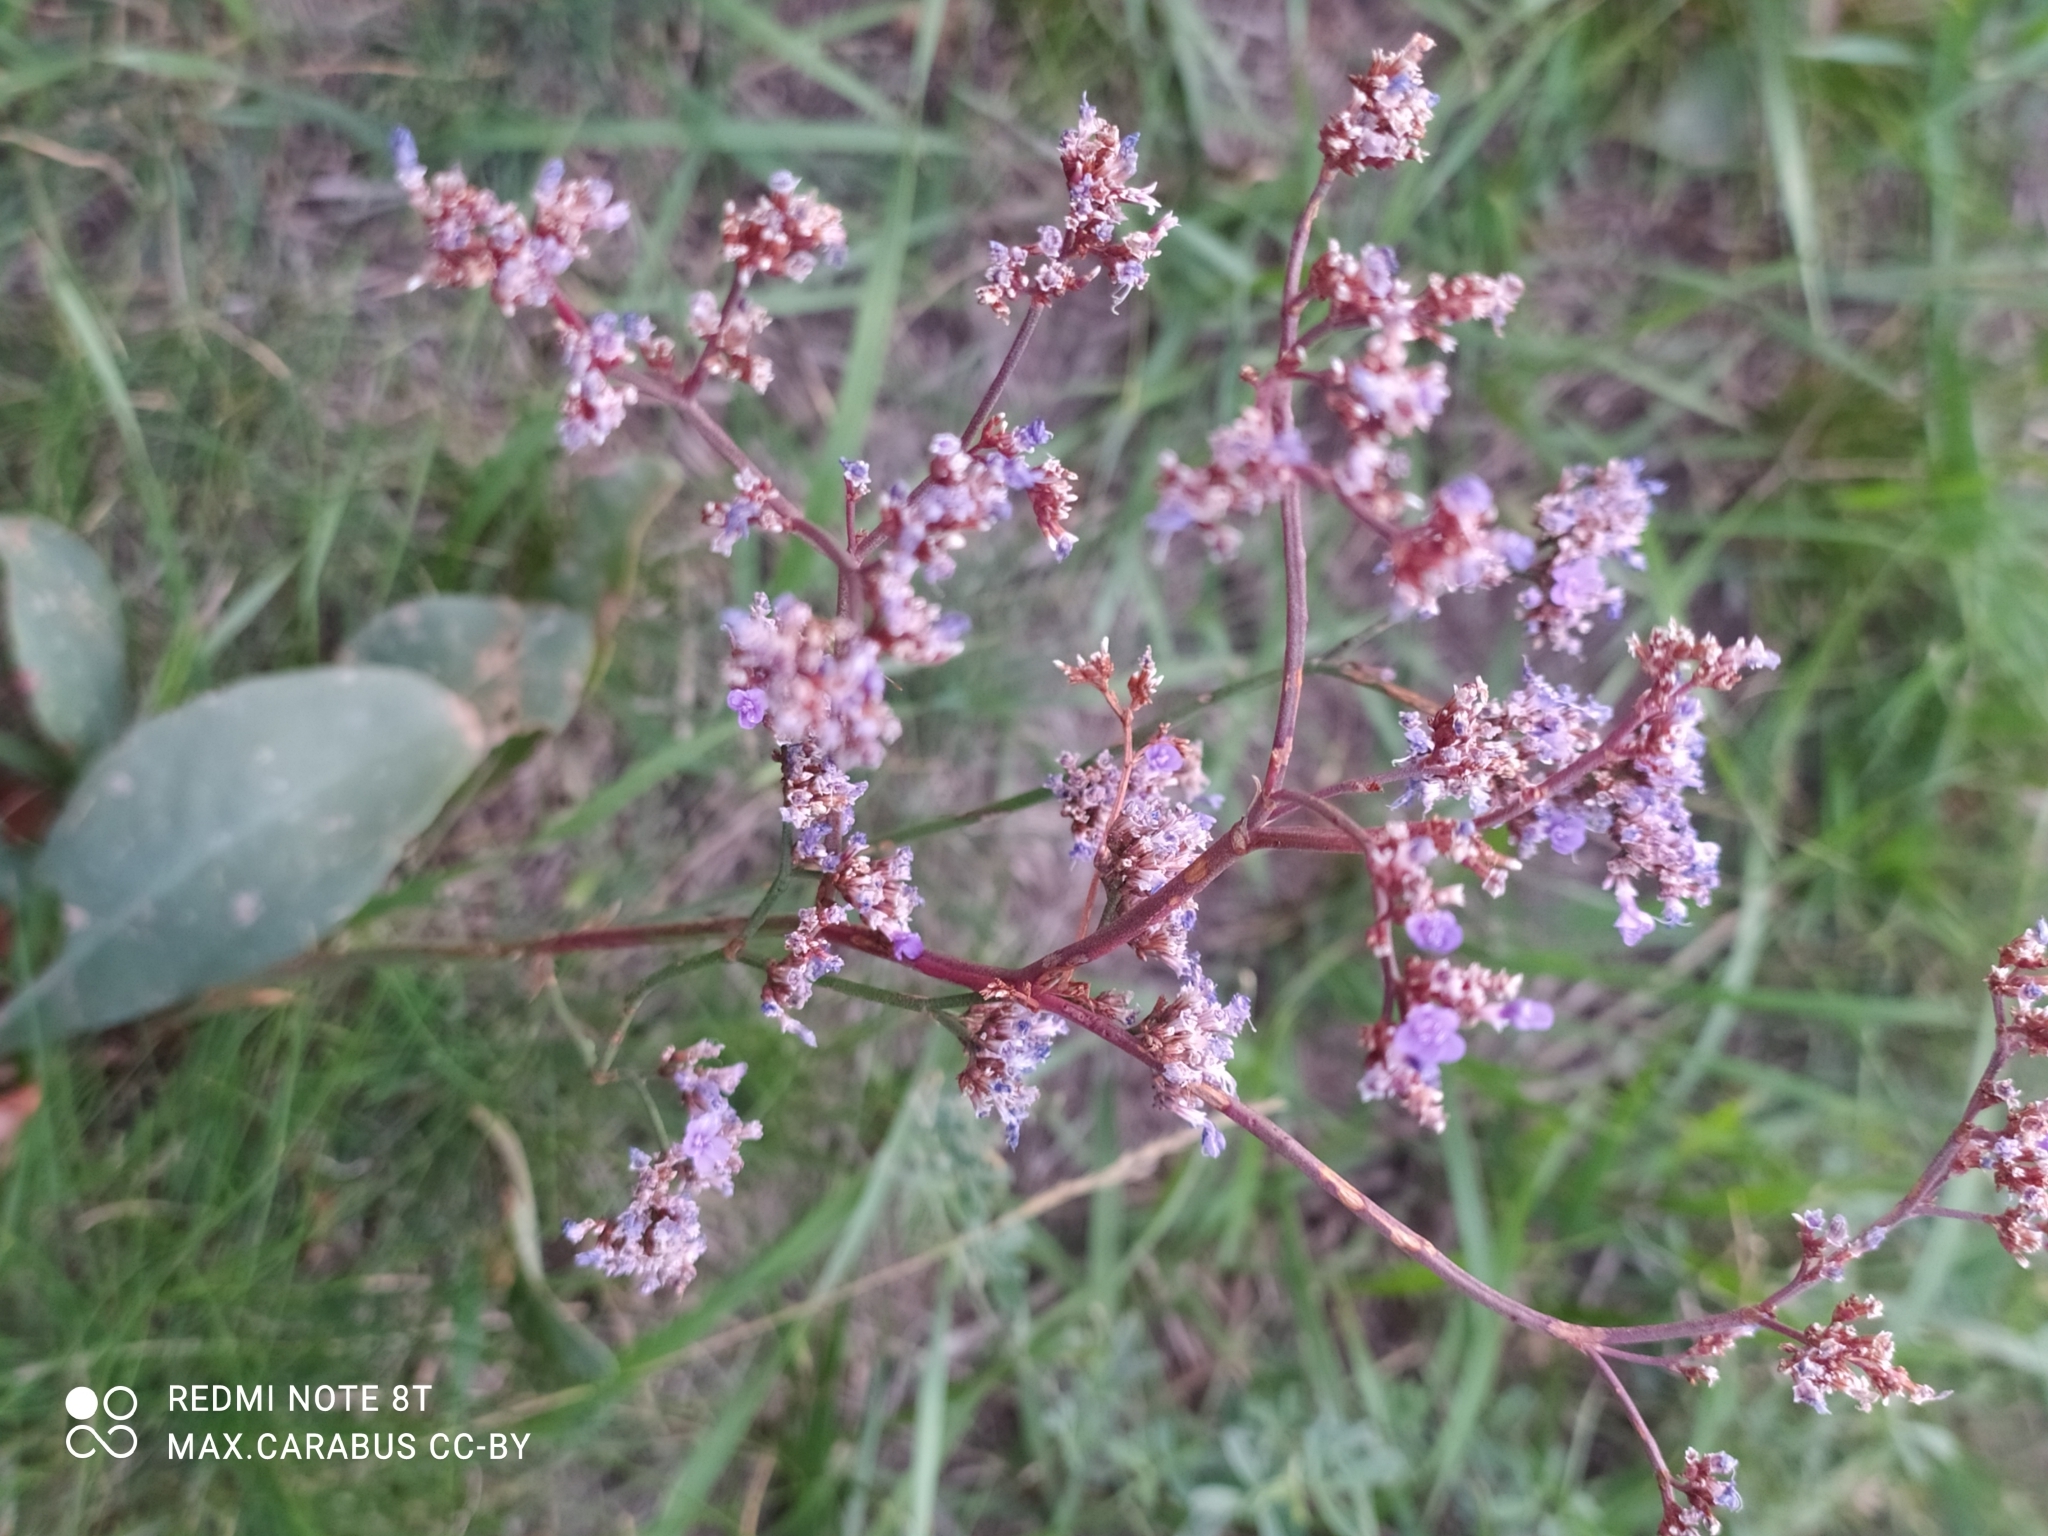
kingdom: Plantae
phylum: Tracheophyta
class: Magnoliopsida
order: Caryophyllales
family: Plumbaginaceae
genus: Limonium
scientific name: Limonium gmelini
